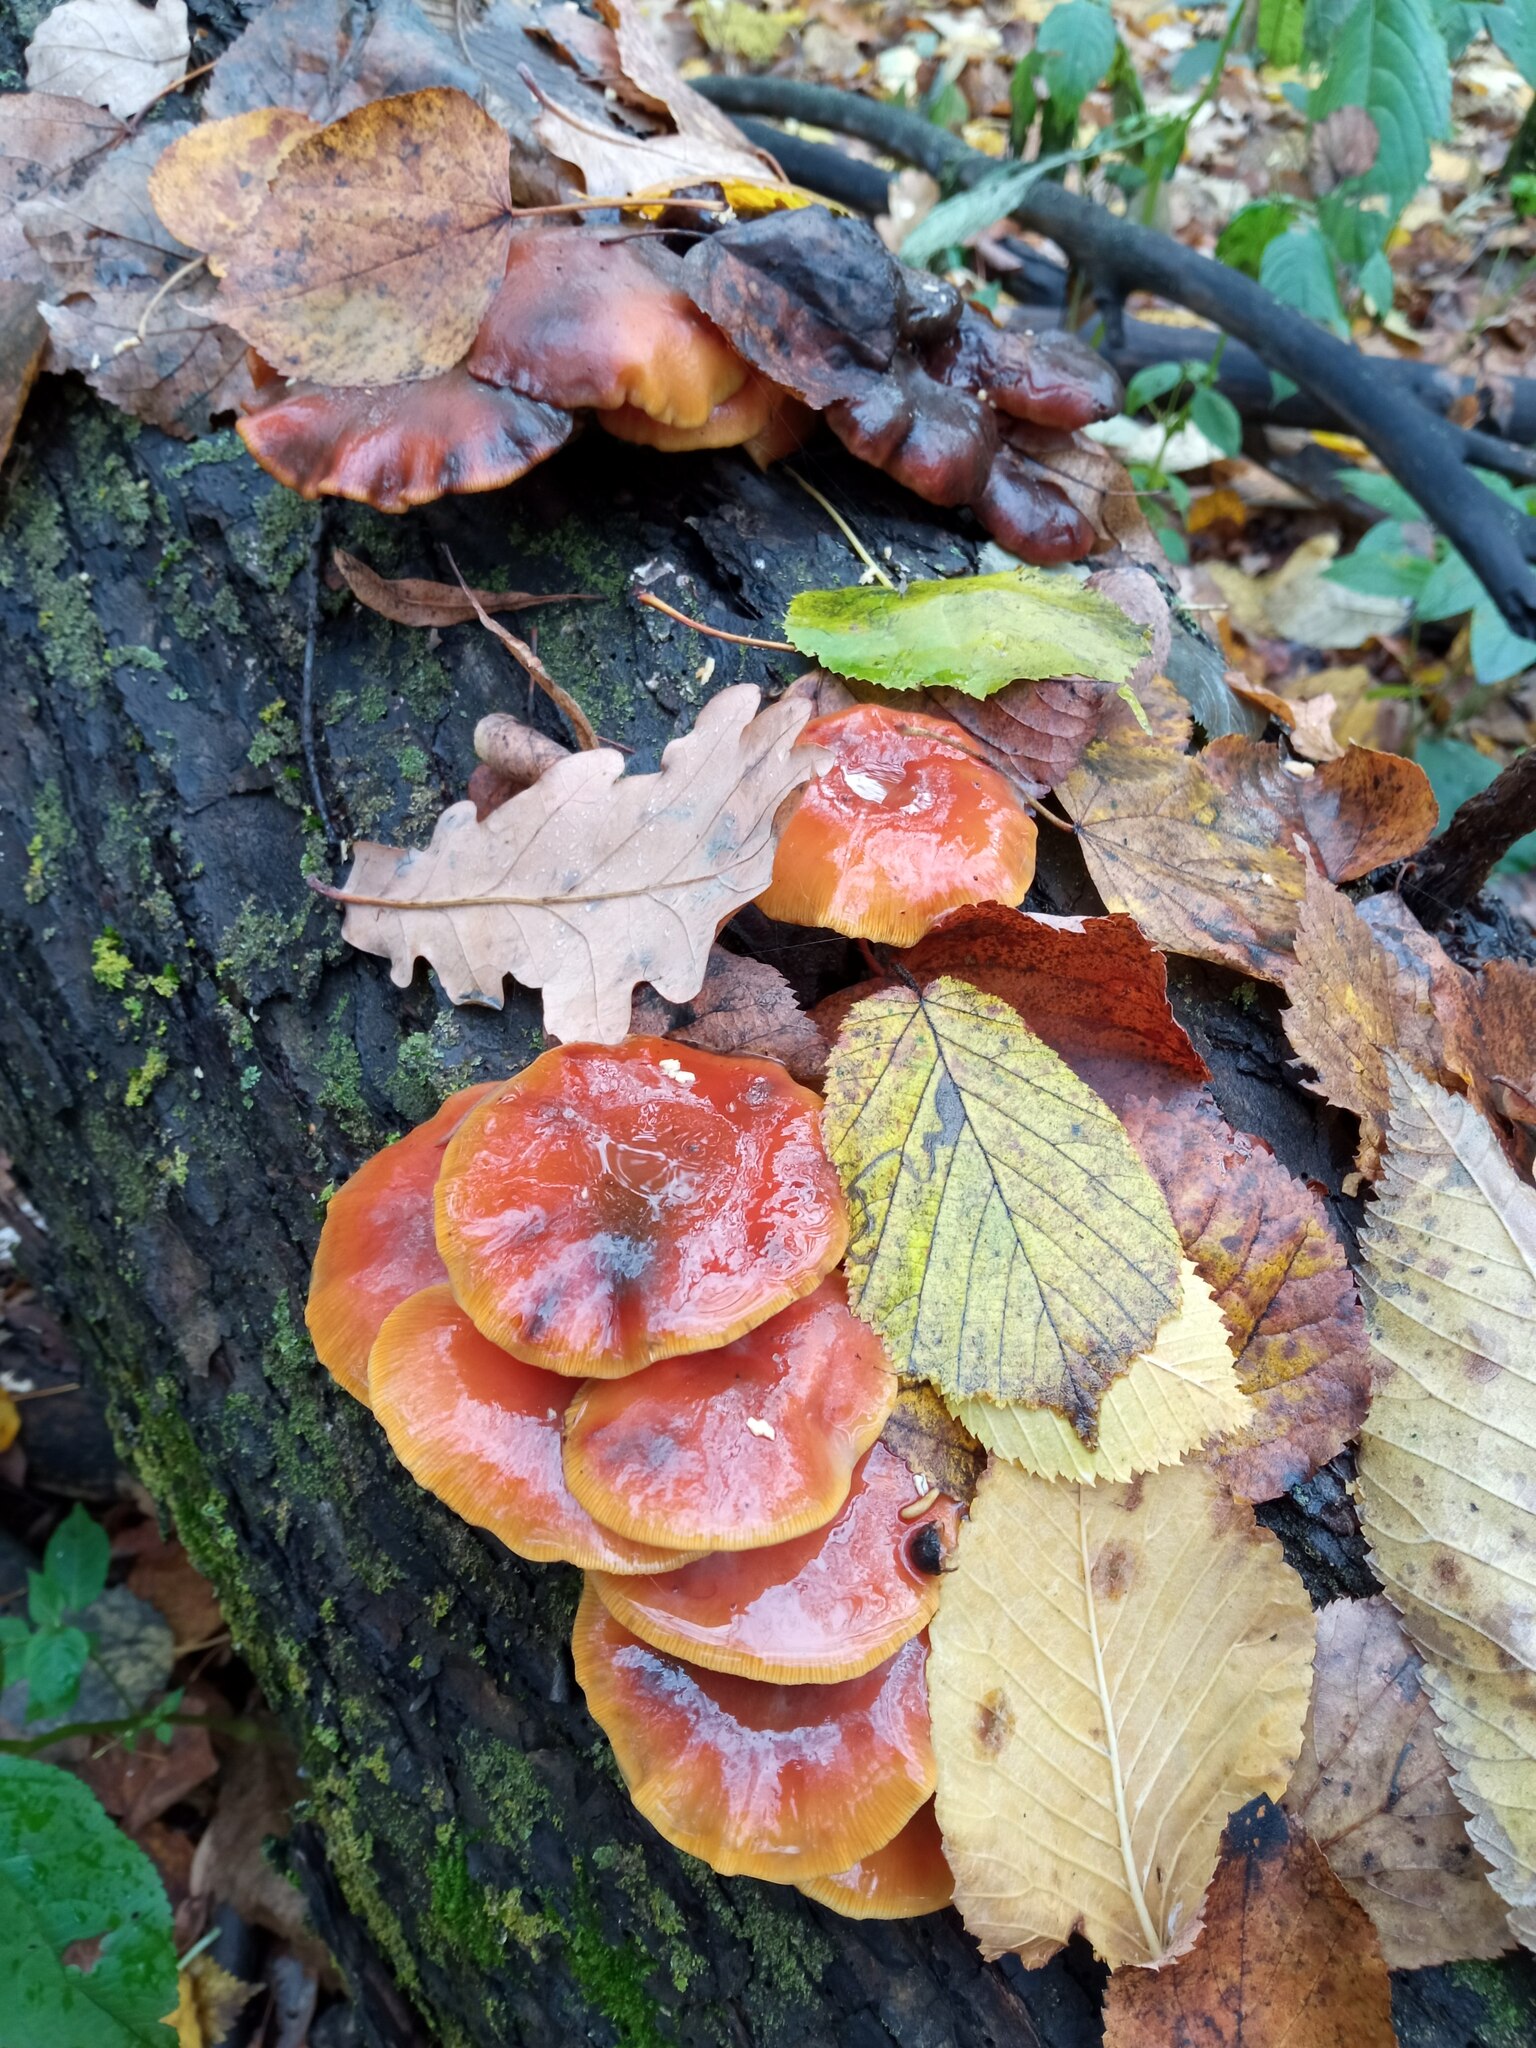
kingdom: Fungi
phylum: Basidiomycota
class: Agaricomycetes
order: Agaricales
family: Physalacriaceae
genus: Flammulina
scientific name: Flammulina
